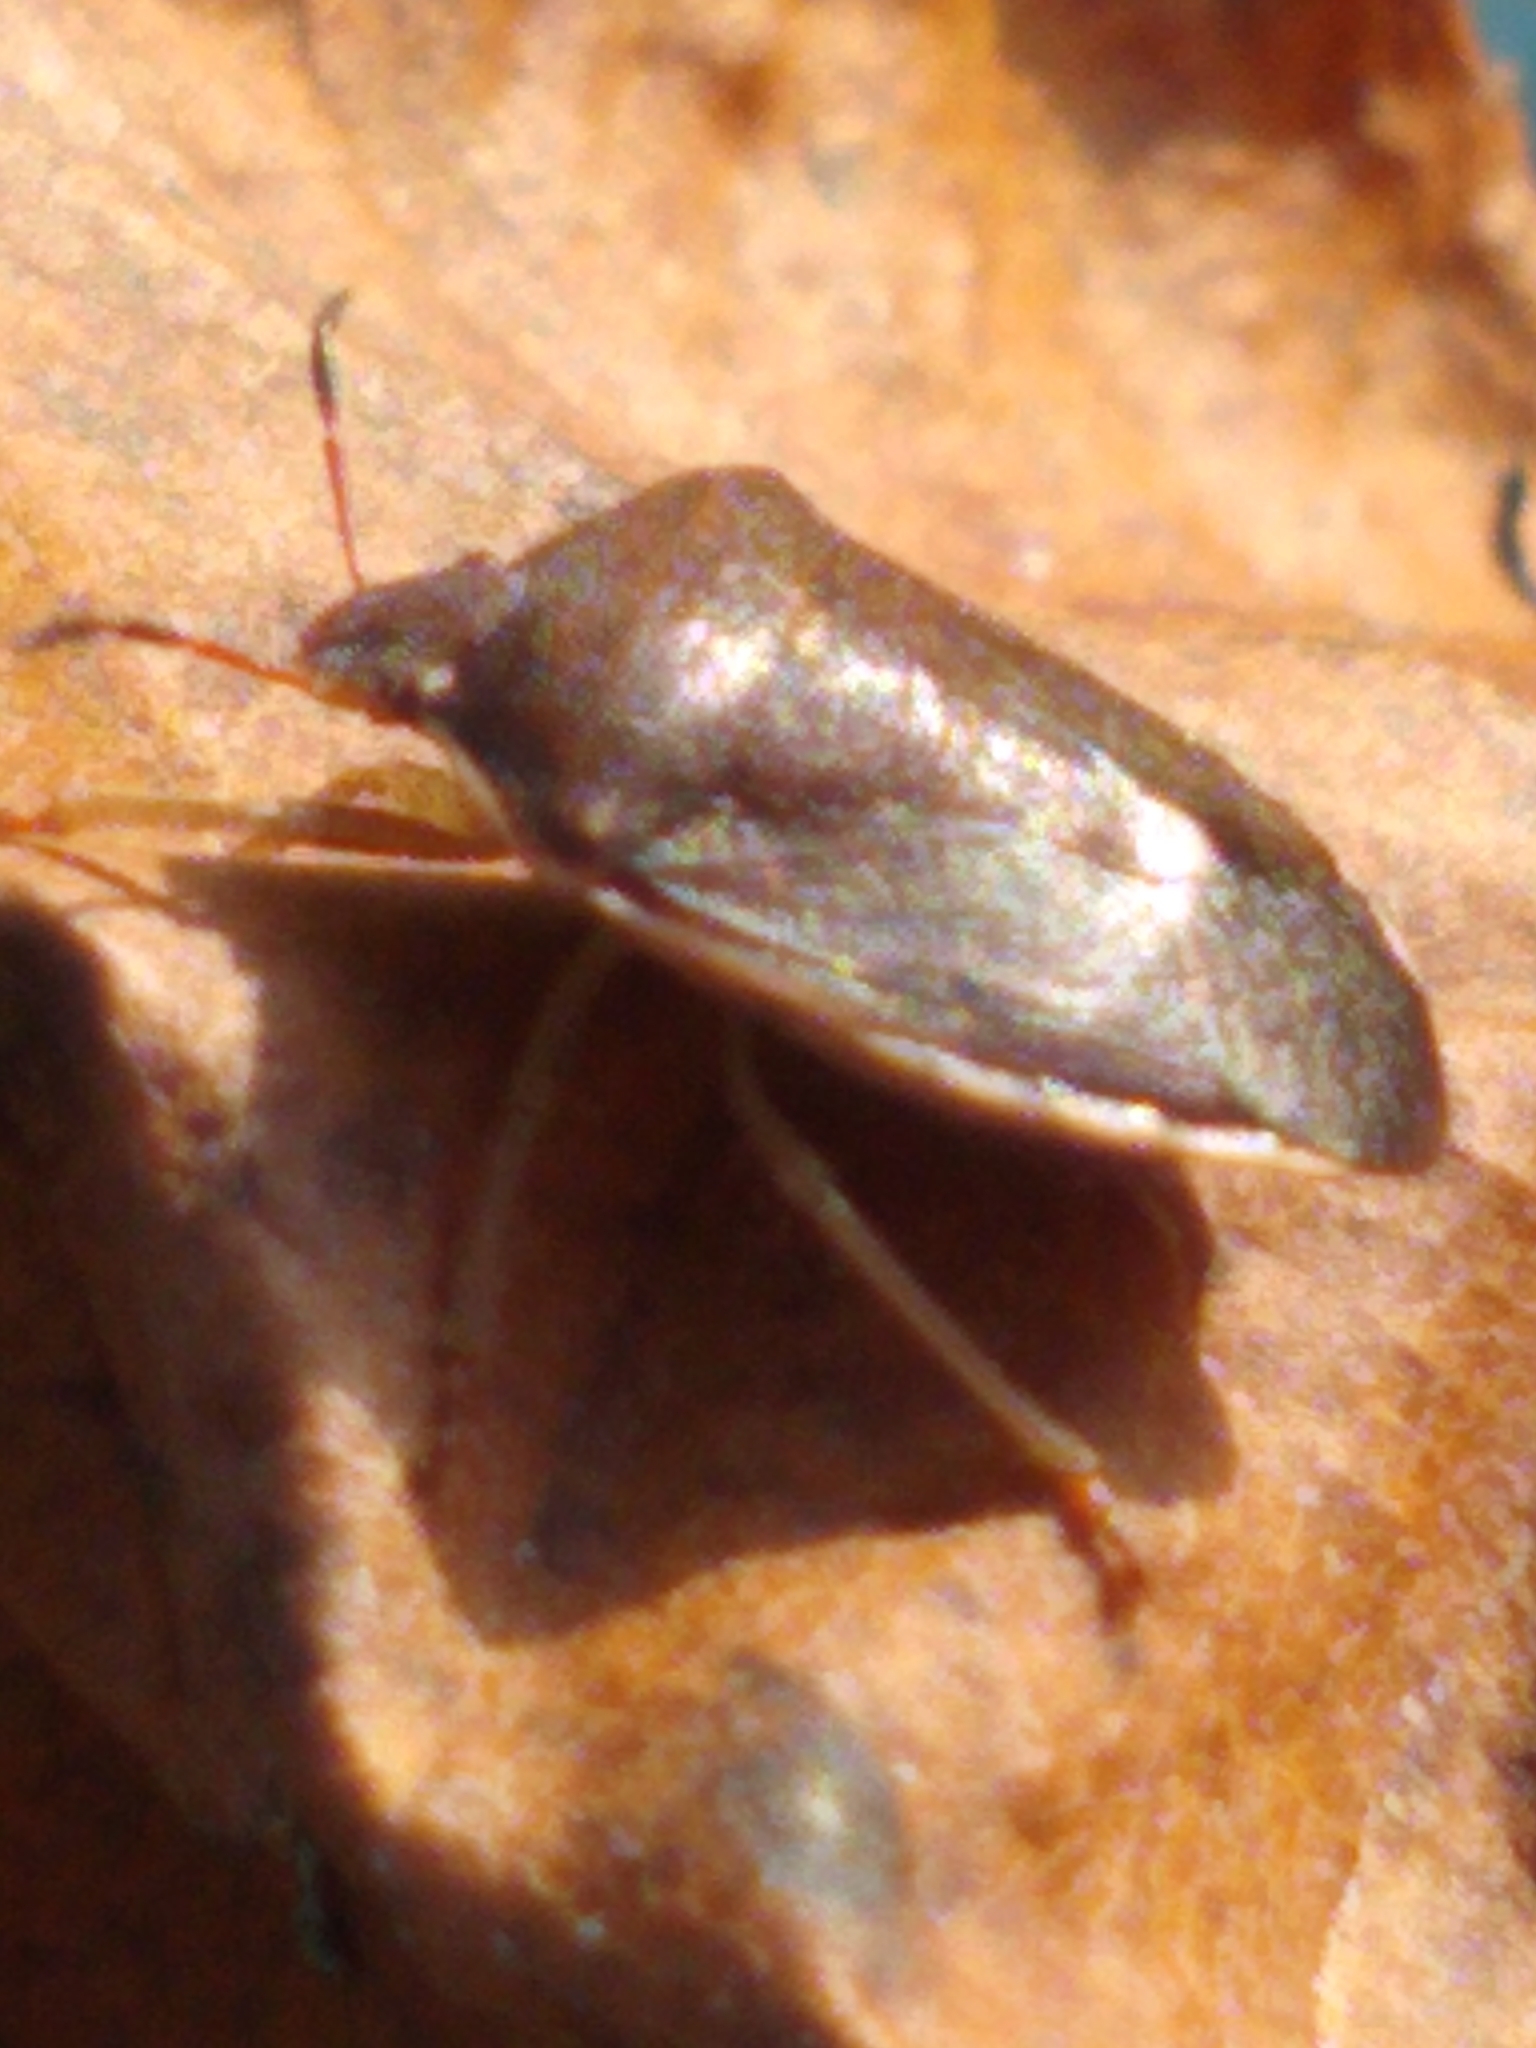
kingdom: Animalia
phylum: Arthropoda
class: Insecta
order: Hemiptera
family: Pentatomidae
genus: Holcostethus
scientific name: Holcostethus limbolarius
